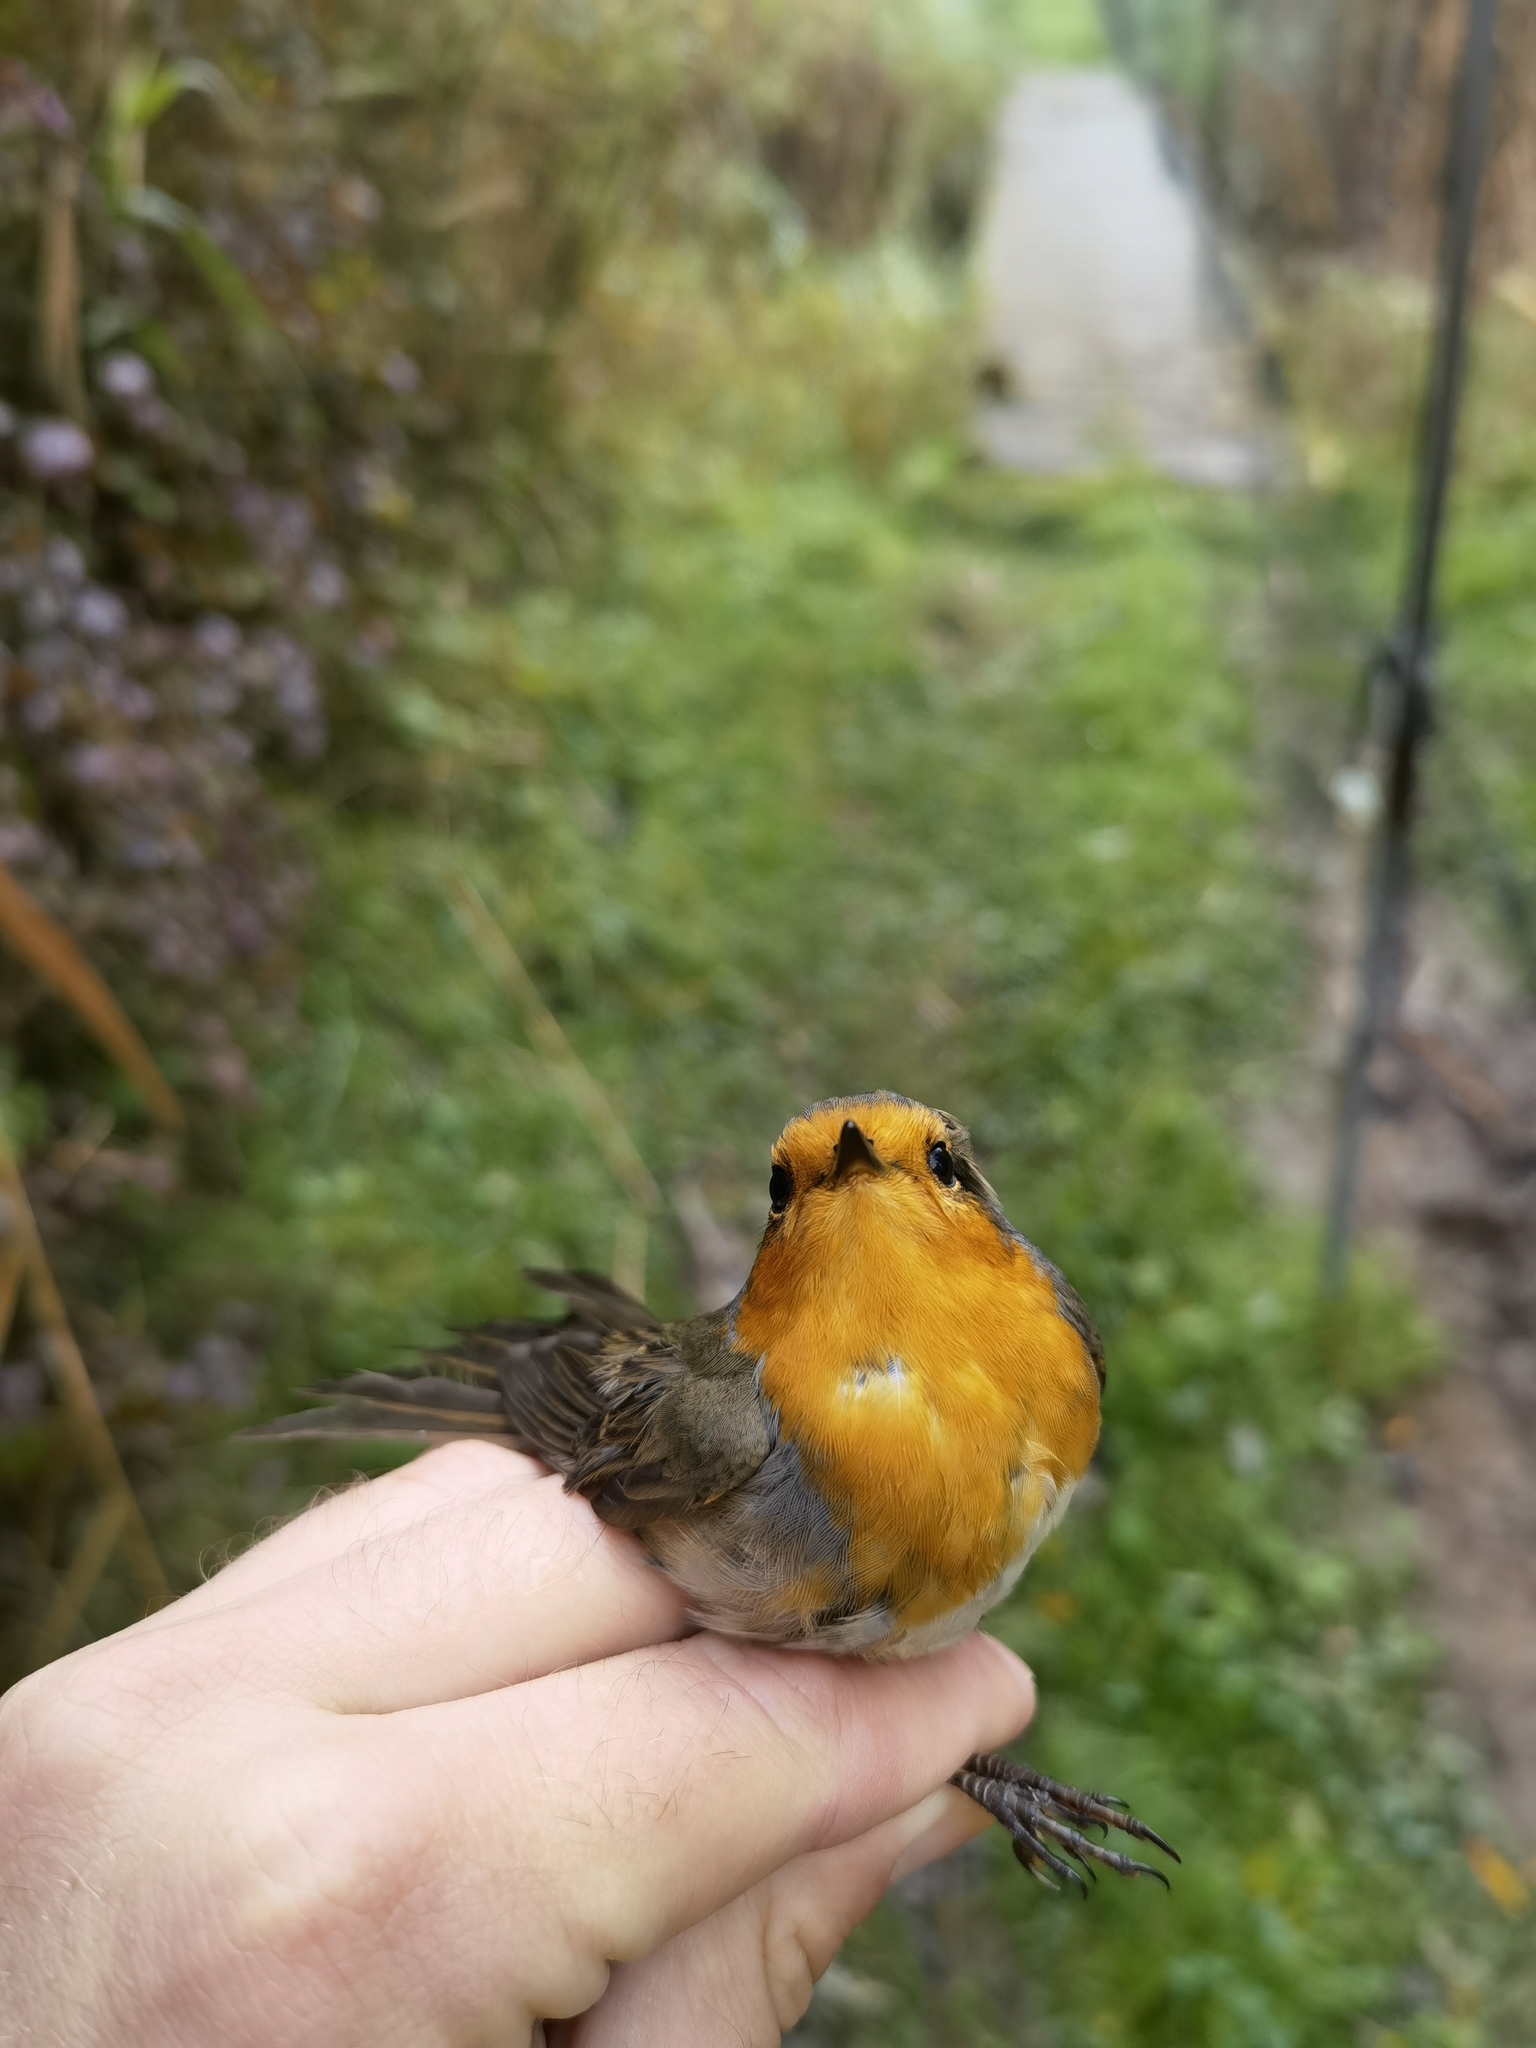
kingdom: Animalia
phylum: Chordata
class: Aves
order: Passeriformes
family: Muscicapidae
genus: Erithacus
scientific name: Erithacus rubecula
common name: European robin
